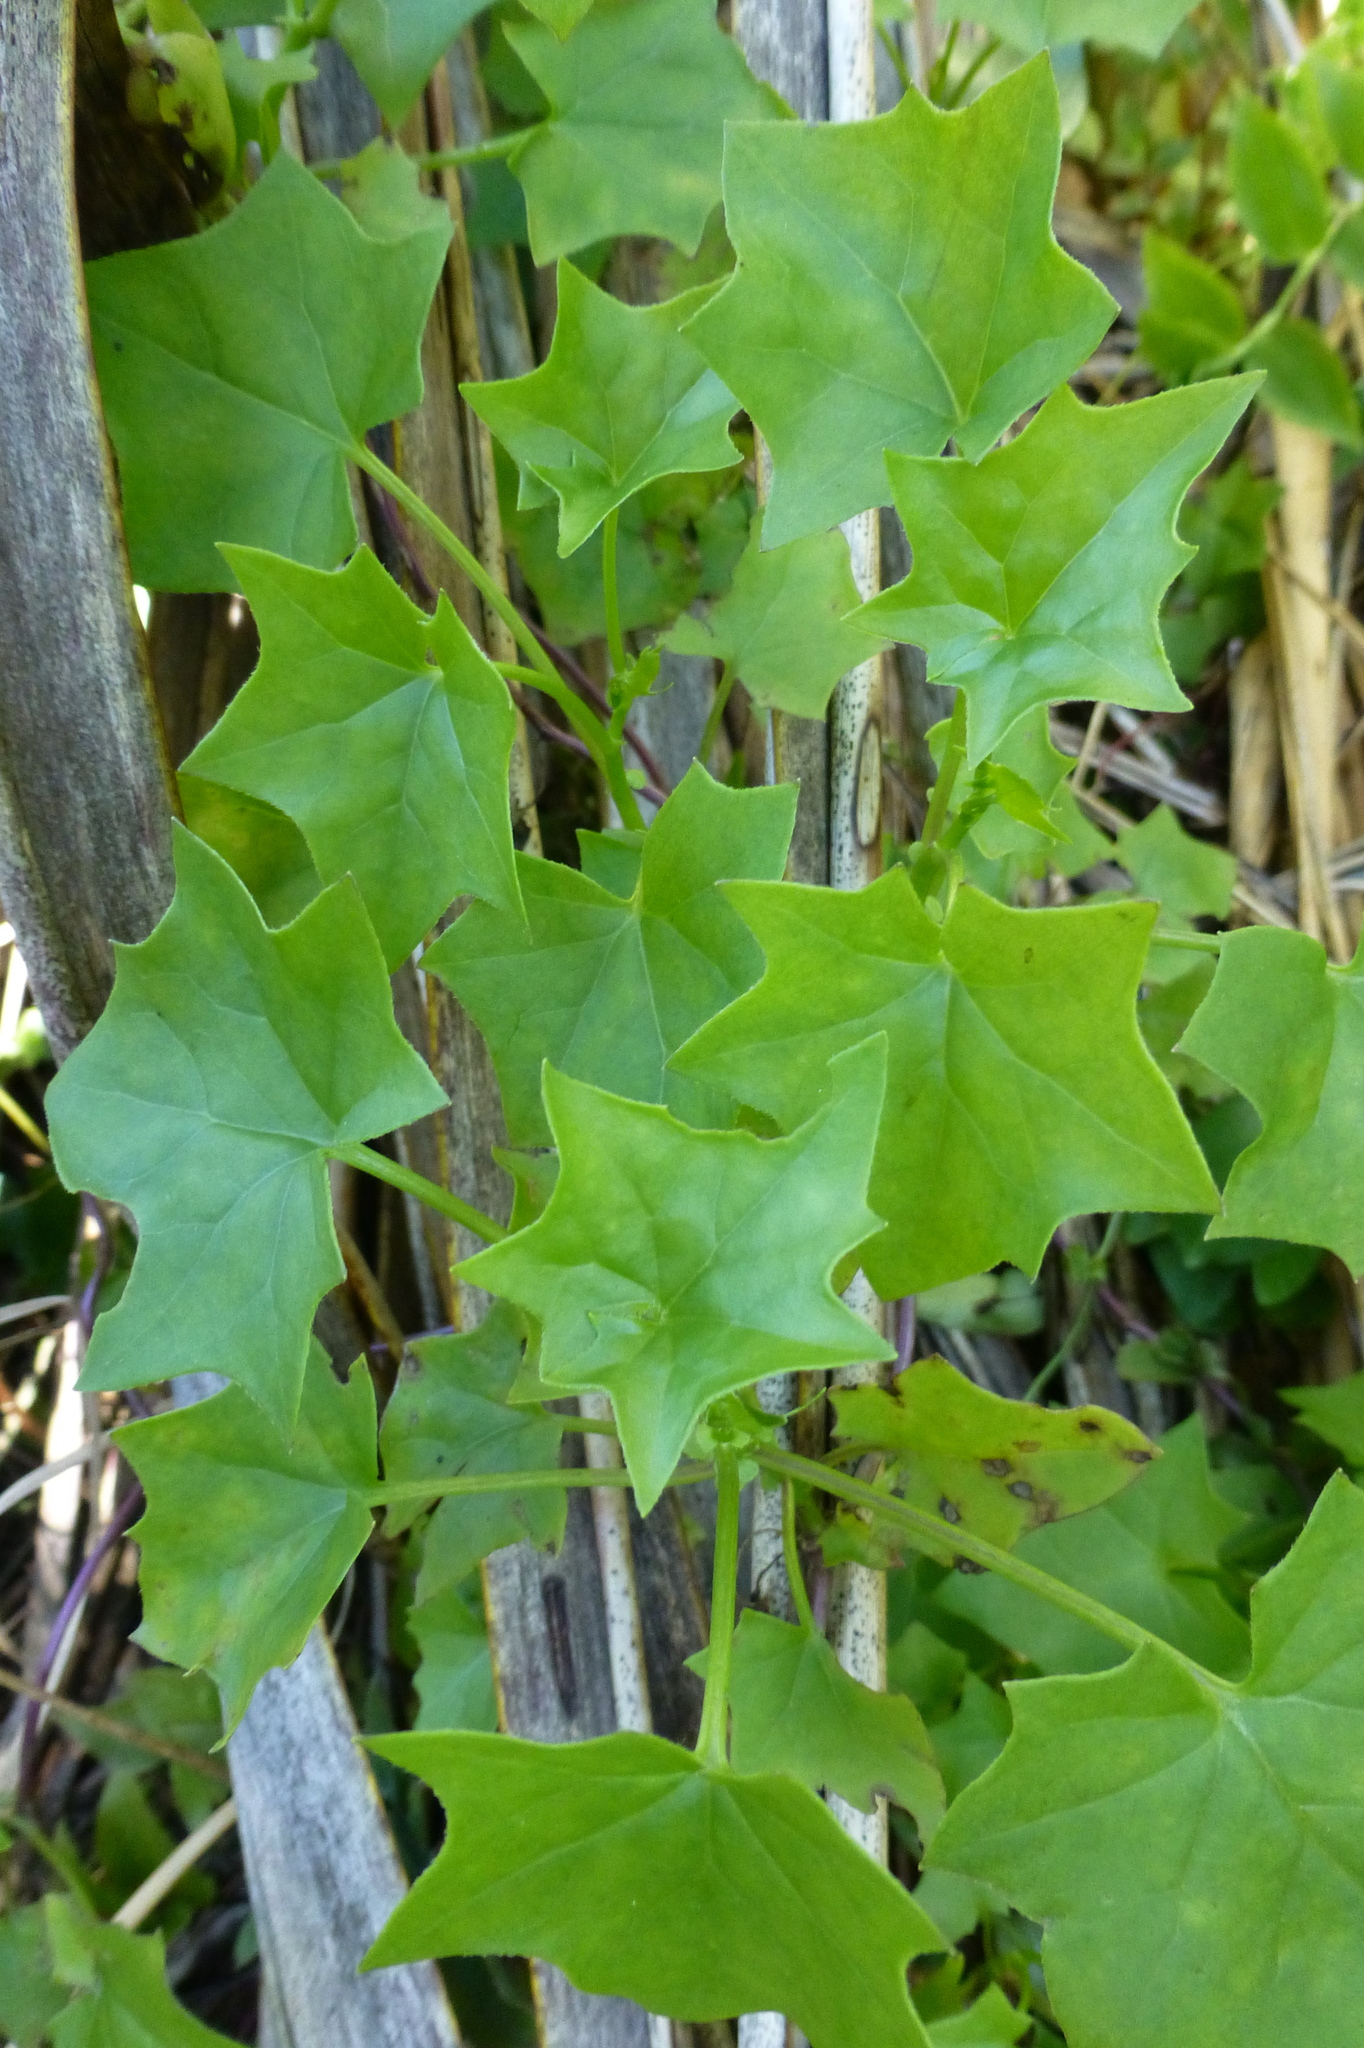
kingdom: Plantae
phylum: Tracheophyta
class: Magnoliopsida
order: Asterales
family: Asteraceae
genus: Delairea
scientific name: Delairea odorata
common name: Cape-ivy
